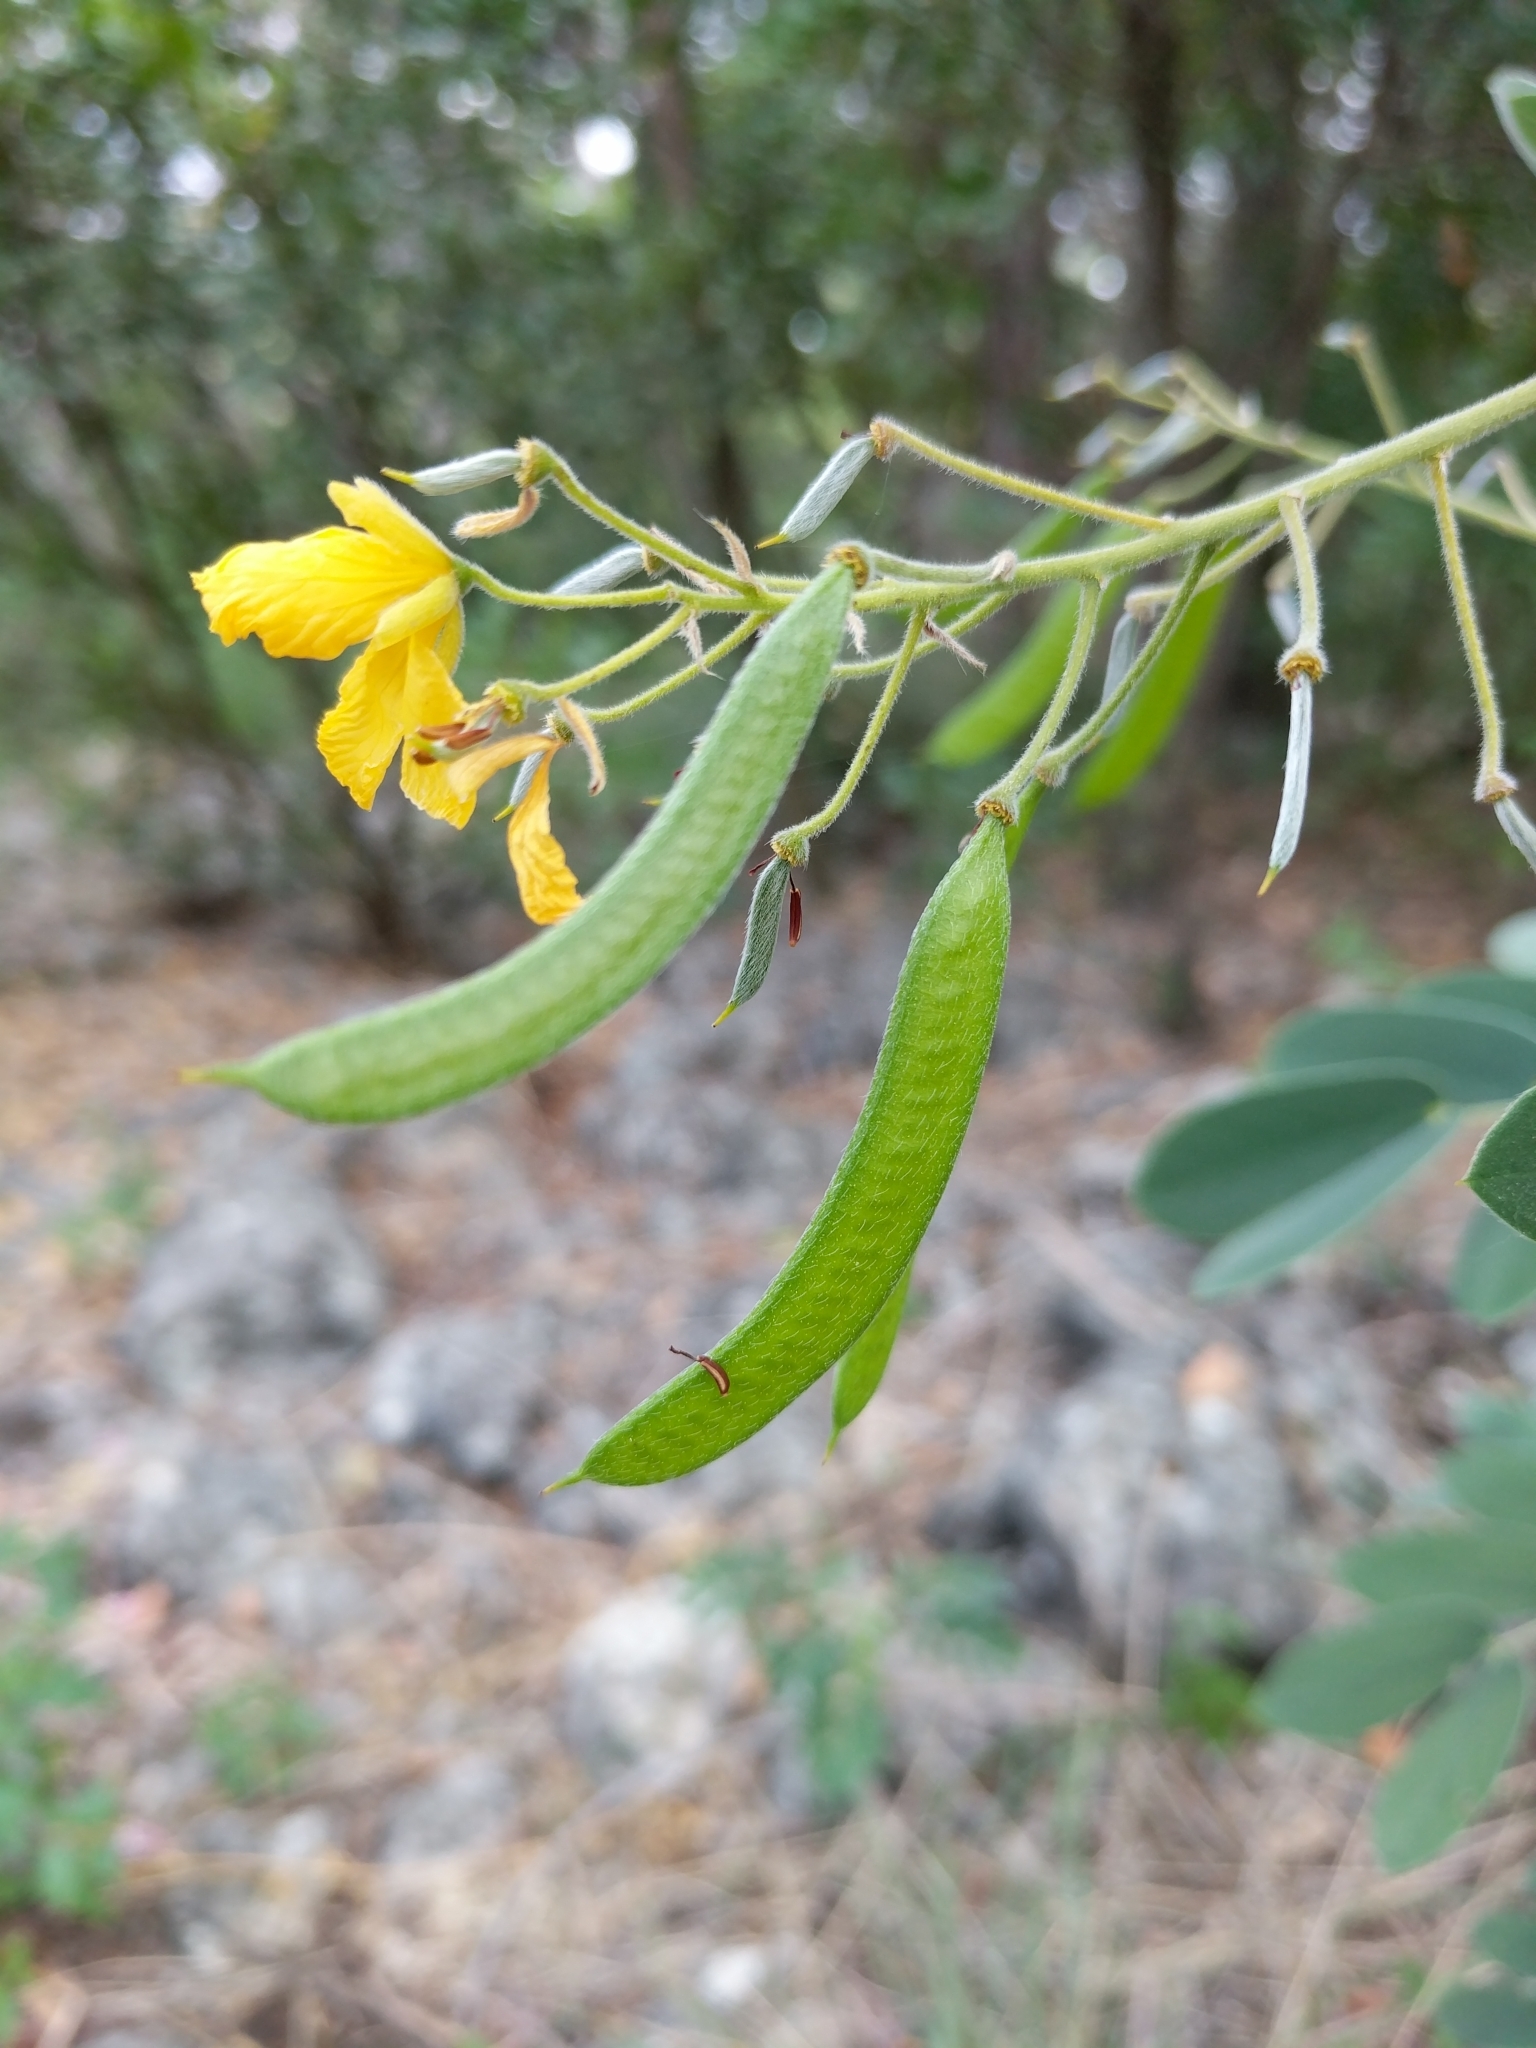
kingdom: Plantae
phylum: Tracheophyta
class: Magnoliopsida
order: Fabales
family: Fabaceae
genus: Senna
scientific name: Senna lindheimeriana
